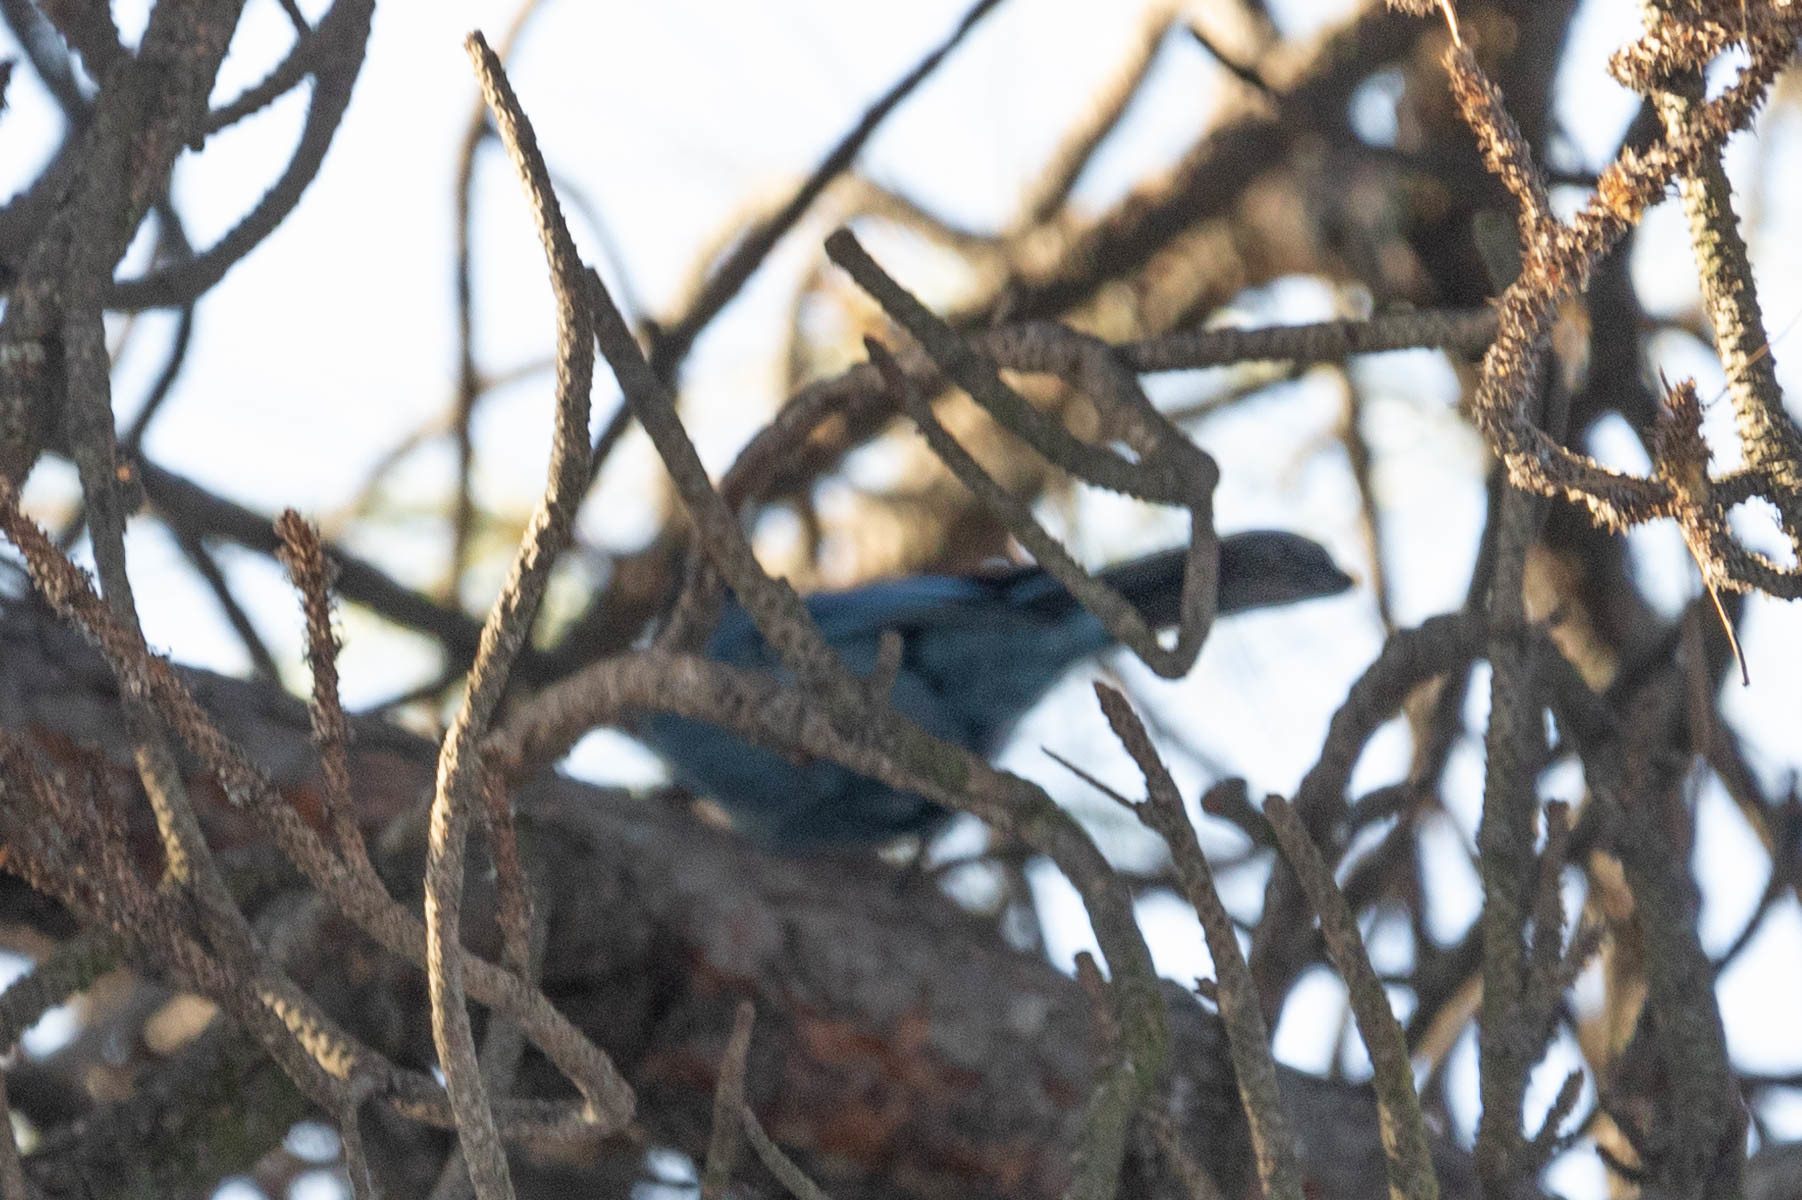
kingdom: Animalia
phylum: Chordata
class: Aves
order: Passeriformes
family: Corvidae
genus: Cyanocitta
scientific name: Cyanocitta stelleri
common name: Steller's jay
